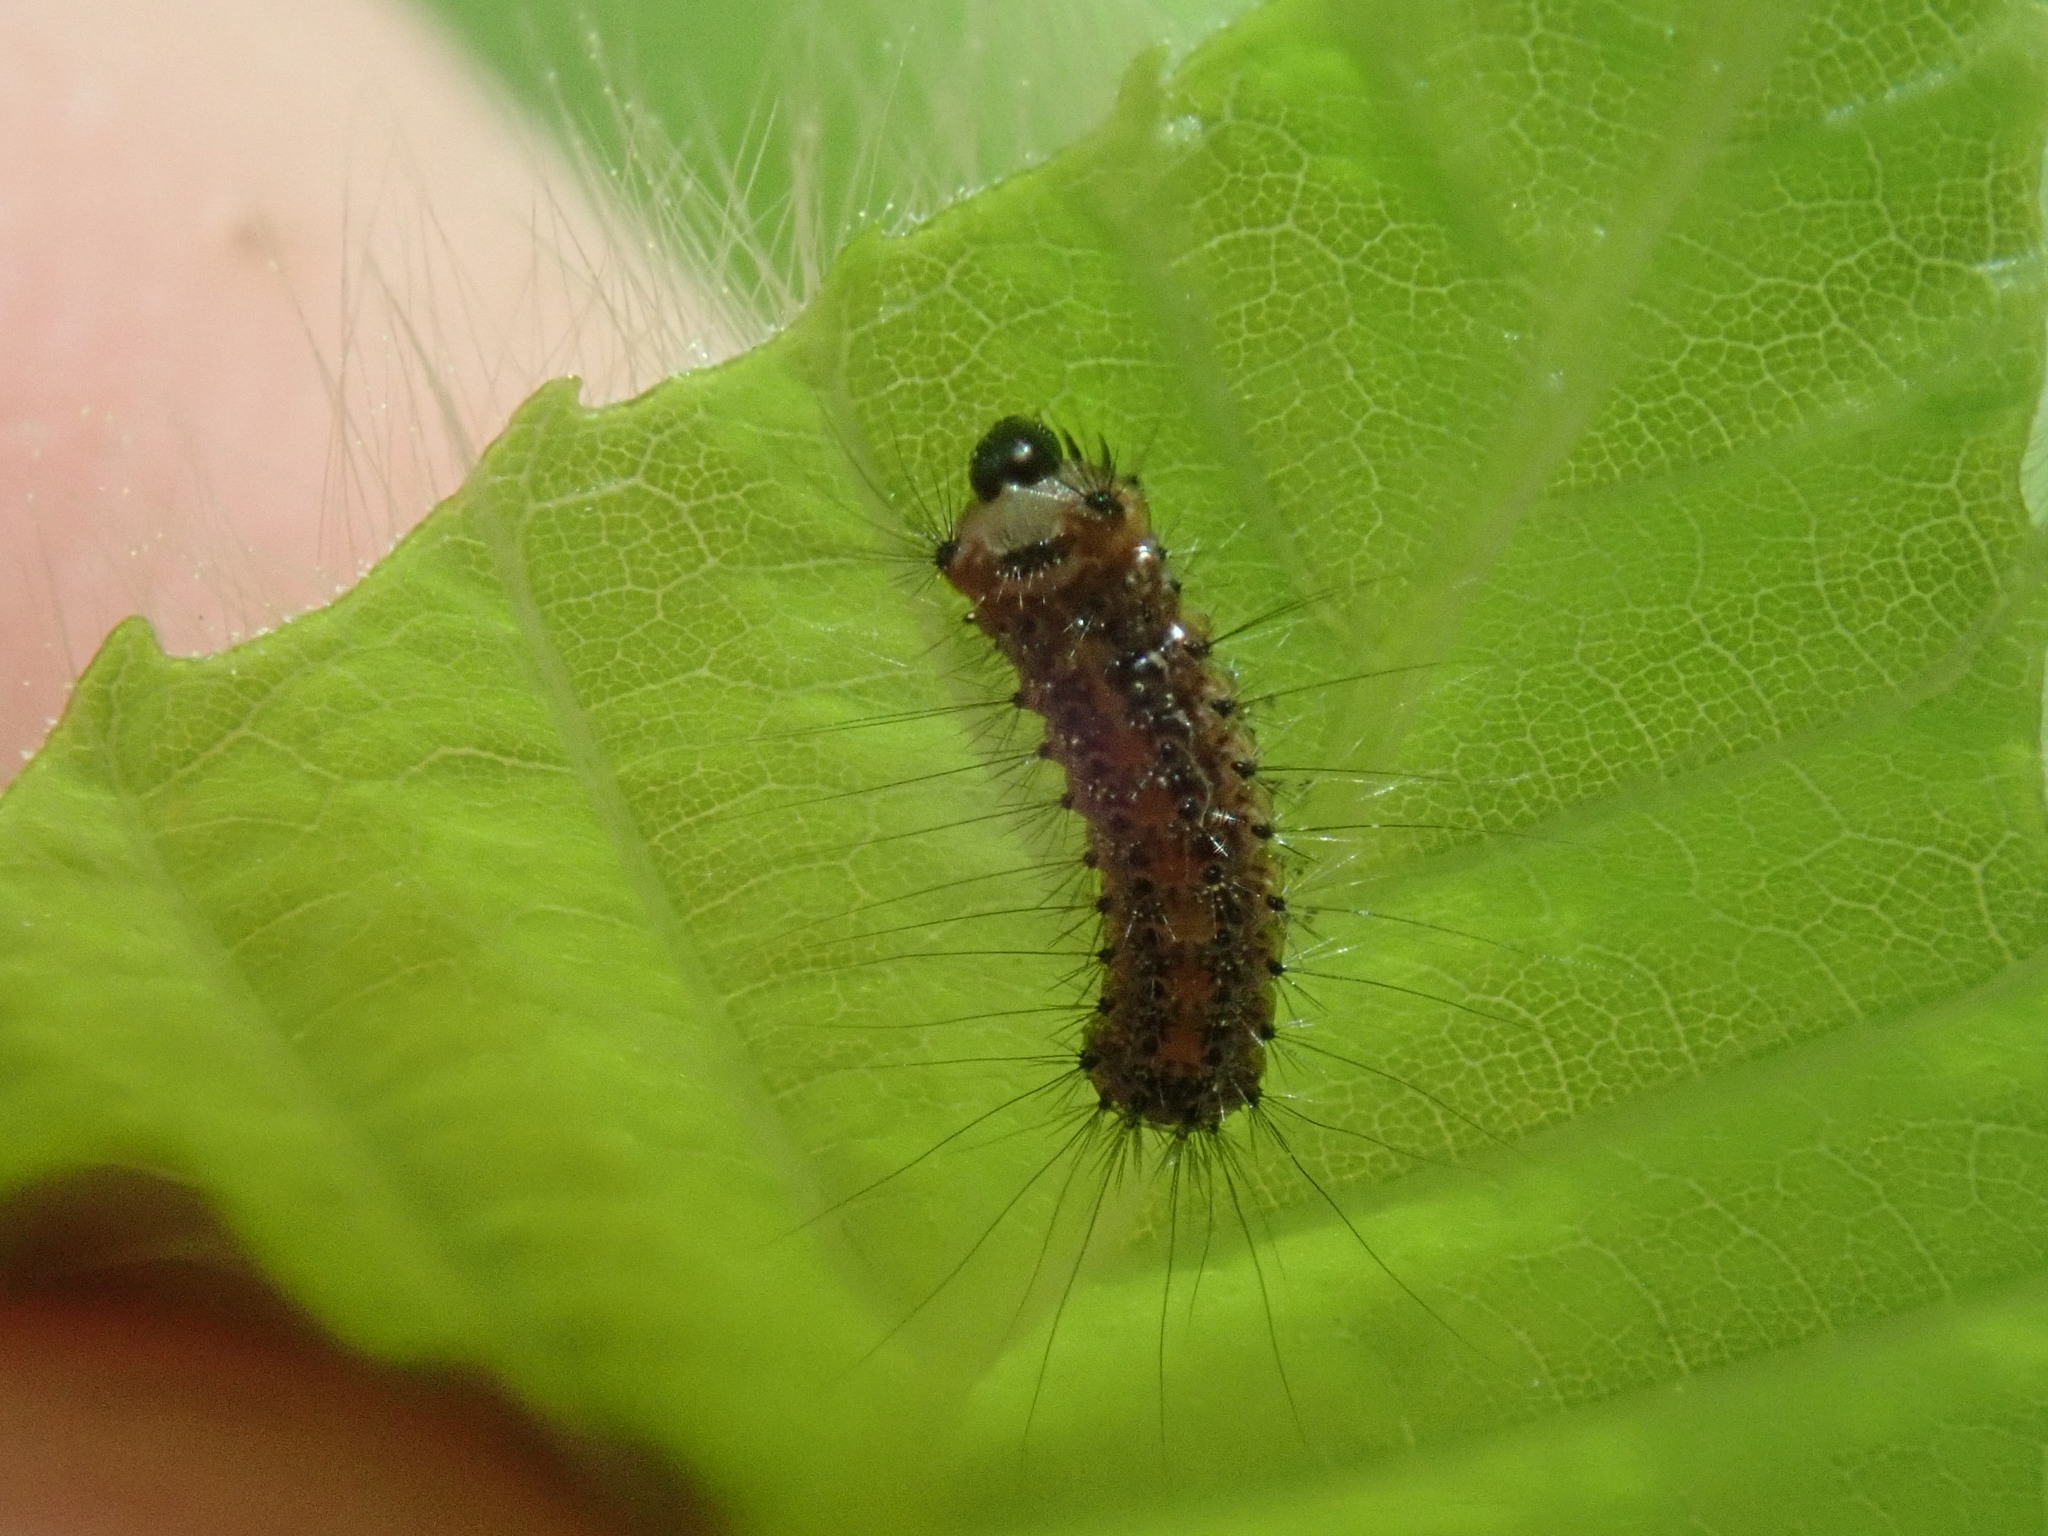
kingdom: Animalia
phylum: Arthropoda
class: Insecta
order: Lepidoptera
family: Erebidae
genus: Lymantria
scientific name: Lymantria dispar
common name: Gypsy moth
